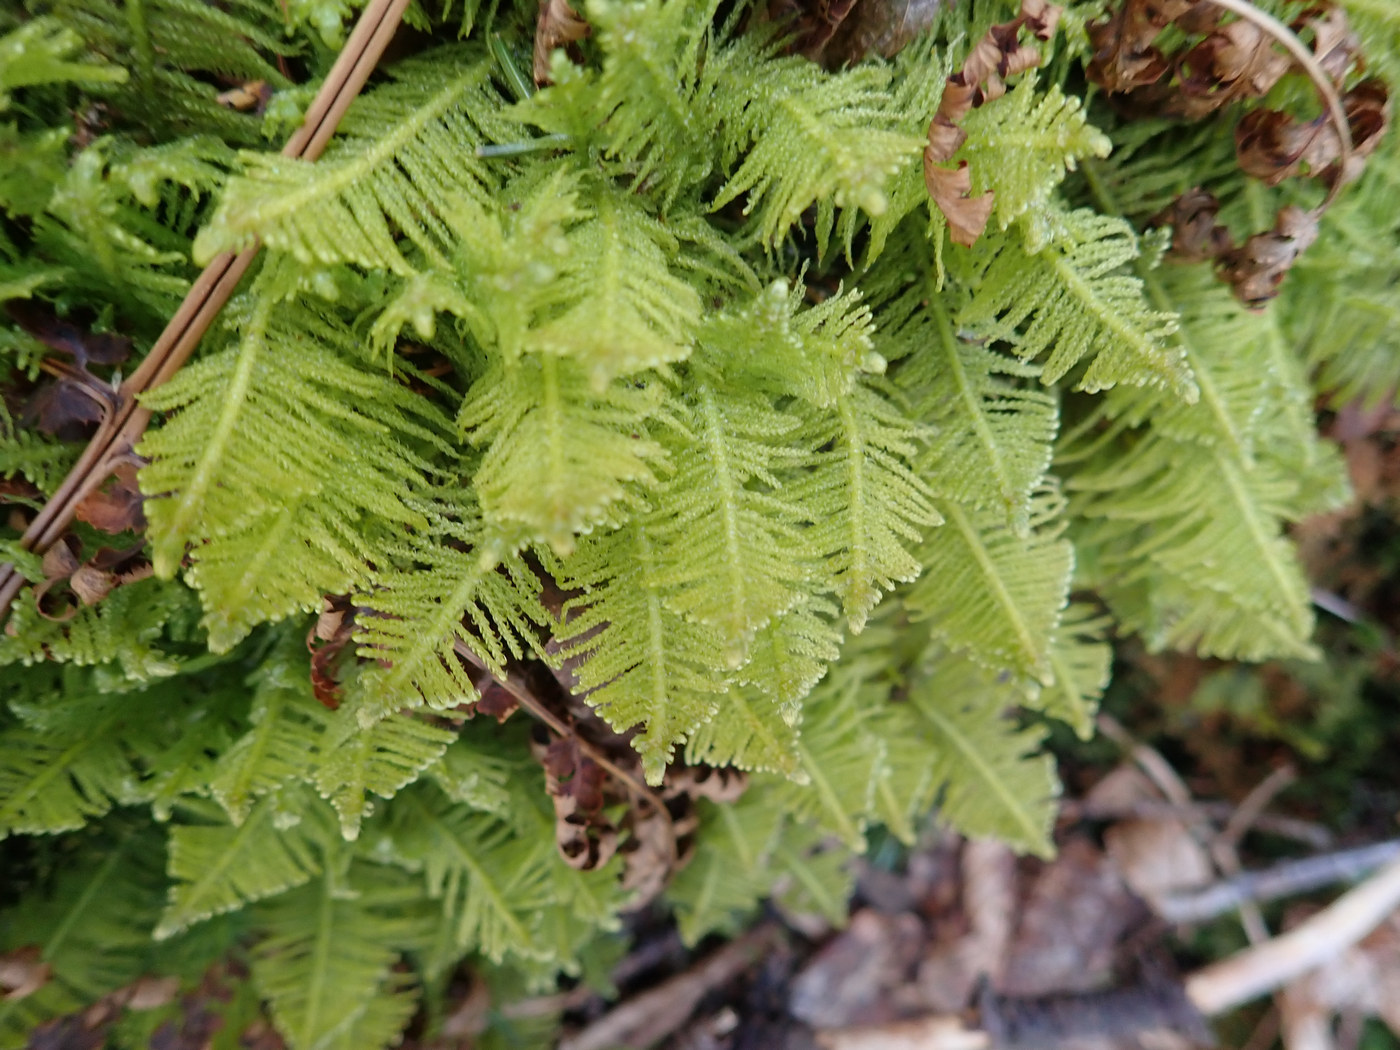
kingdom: Plantae
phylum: Bryophyta
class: Bryopsida
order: Hypnales
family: Pylaisiaceae
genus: Ptilium
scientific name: Ptilium crista-castrensis
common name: Knight's plume moss
